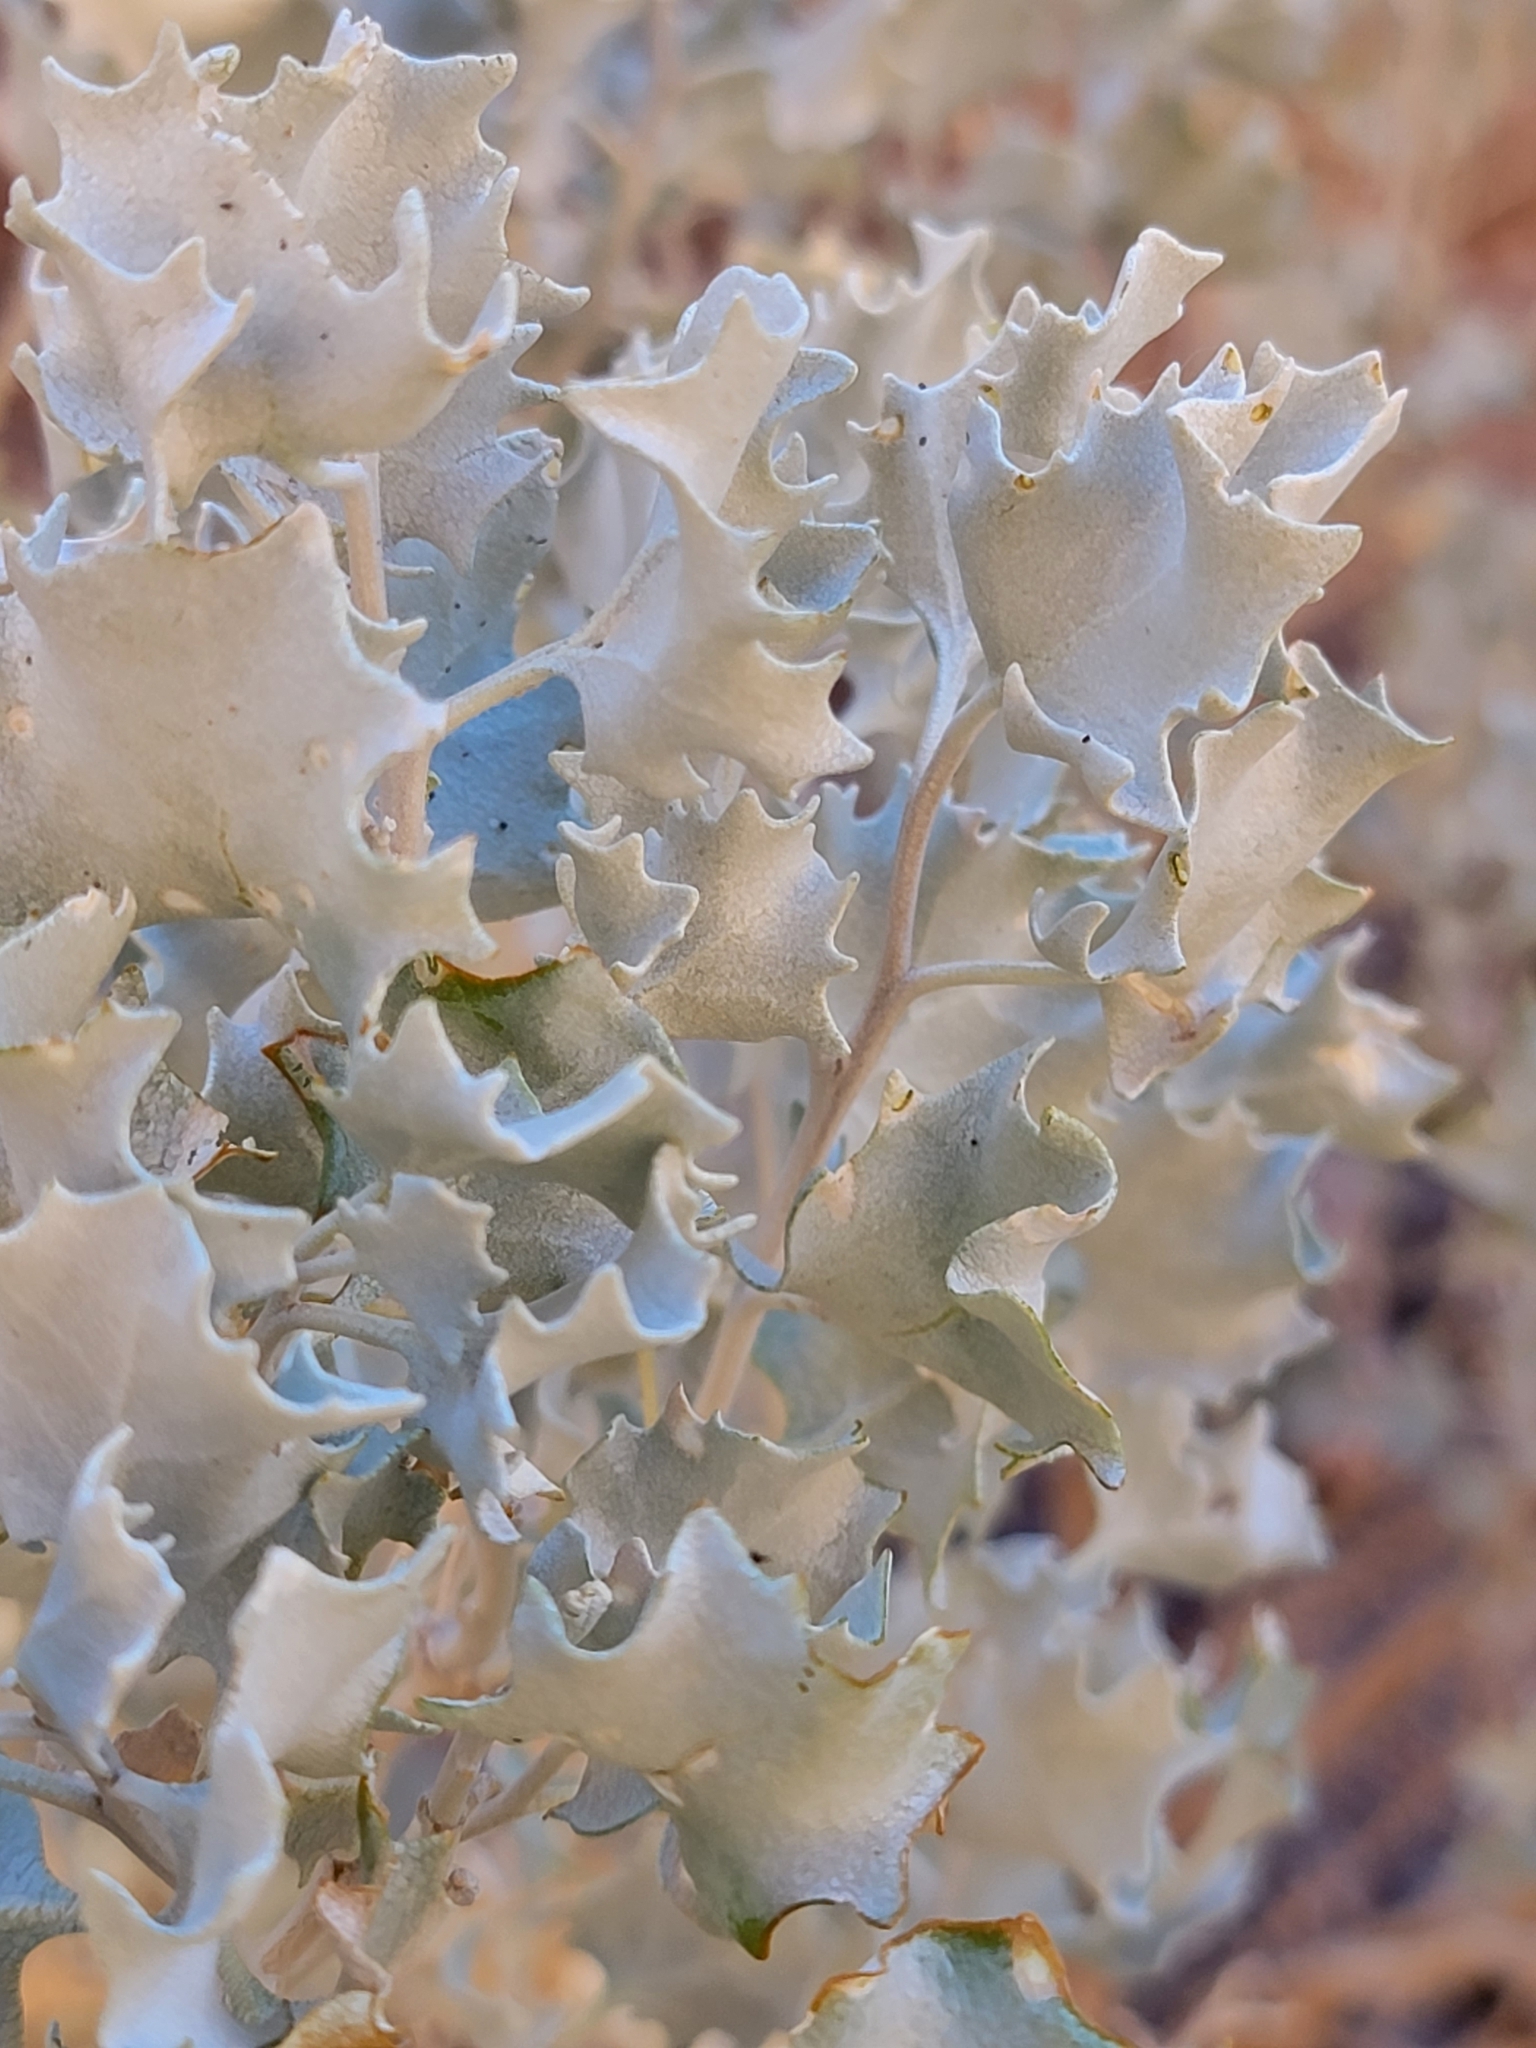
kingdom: Plantae
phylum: Tracheophyta
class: Magnoliopsida
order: Caryophyllales
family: Amaranthaceae
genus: Atriplex
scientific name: Atriplex hymenelytra
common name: Desert-holly
